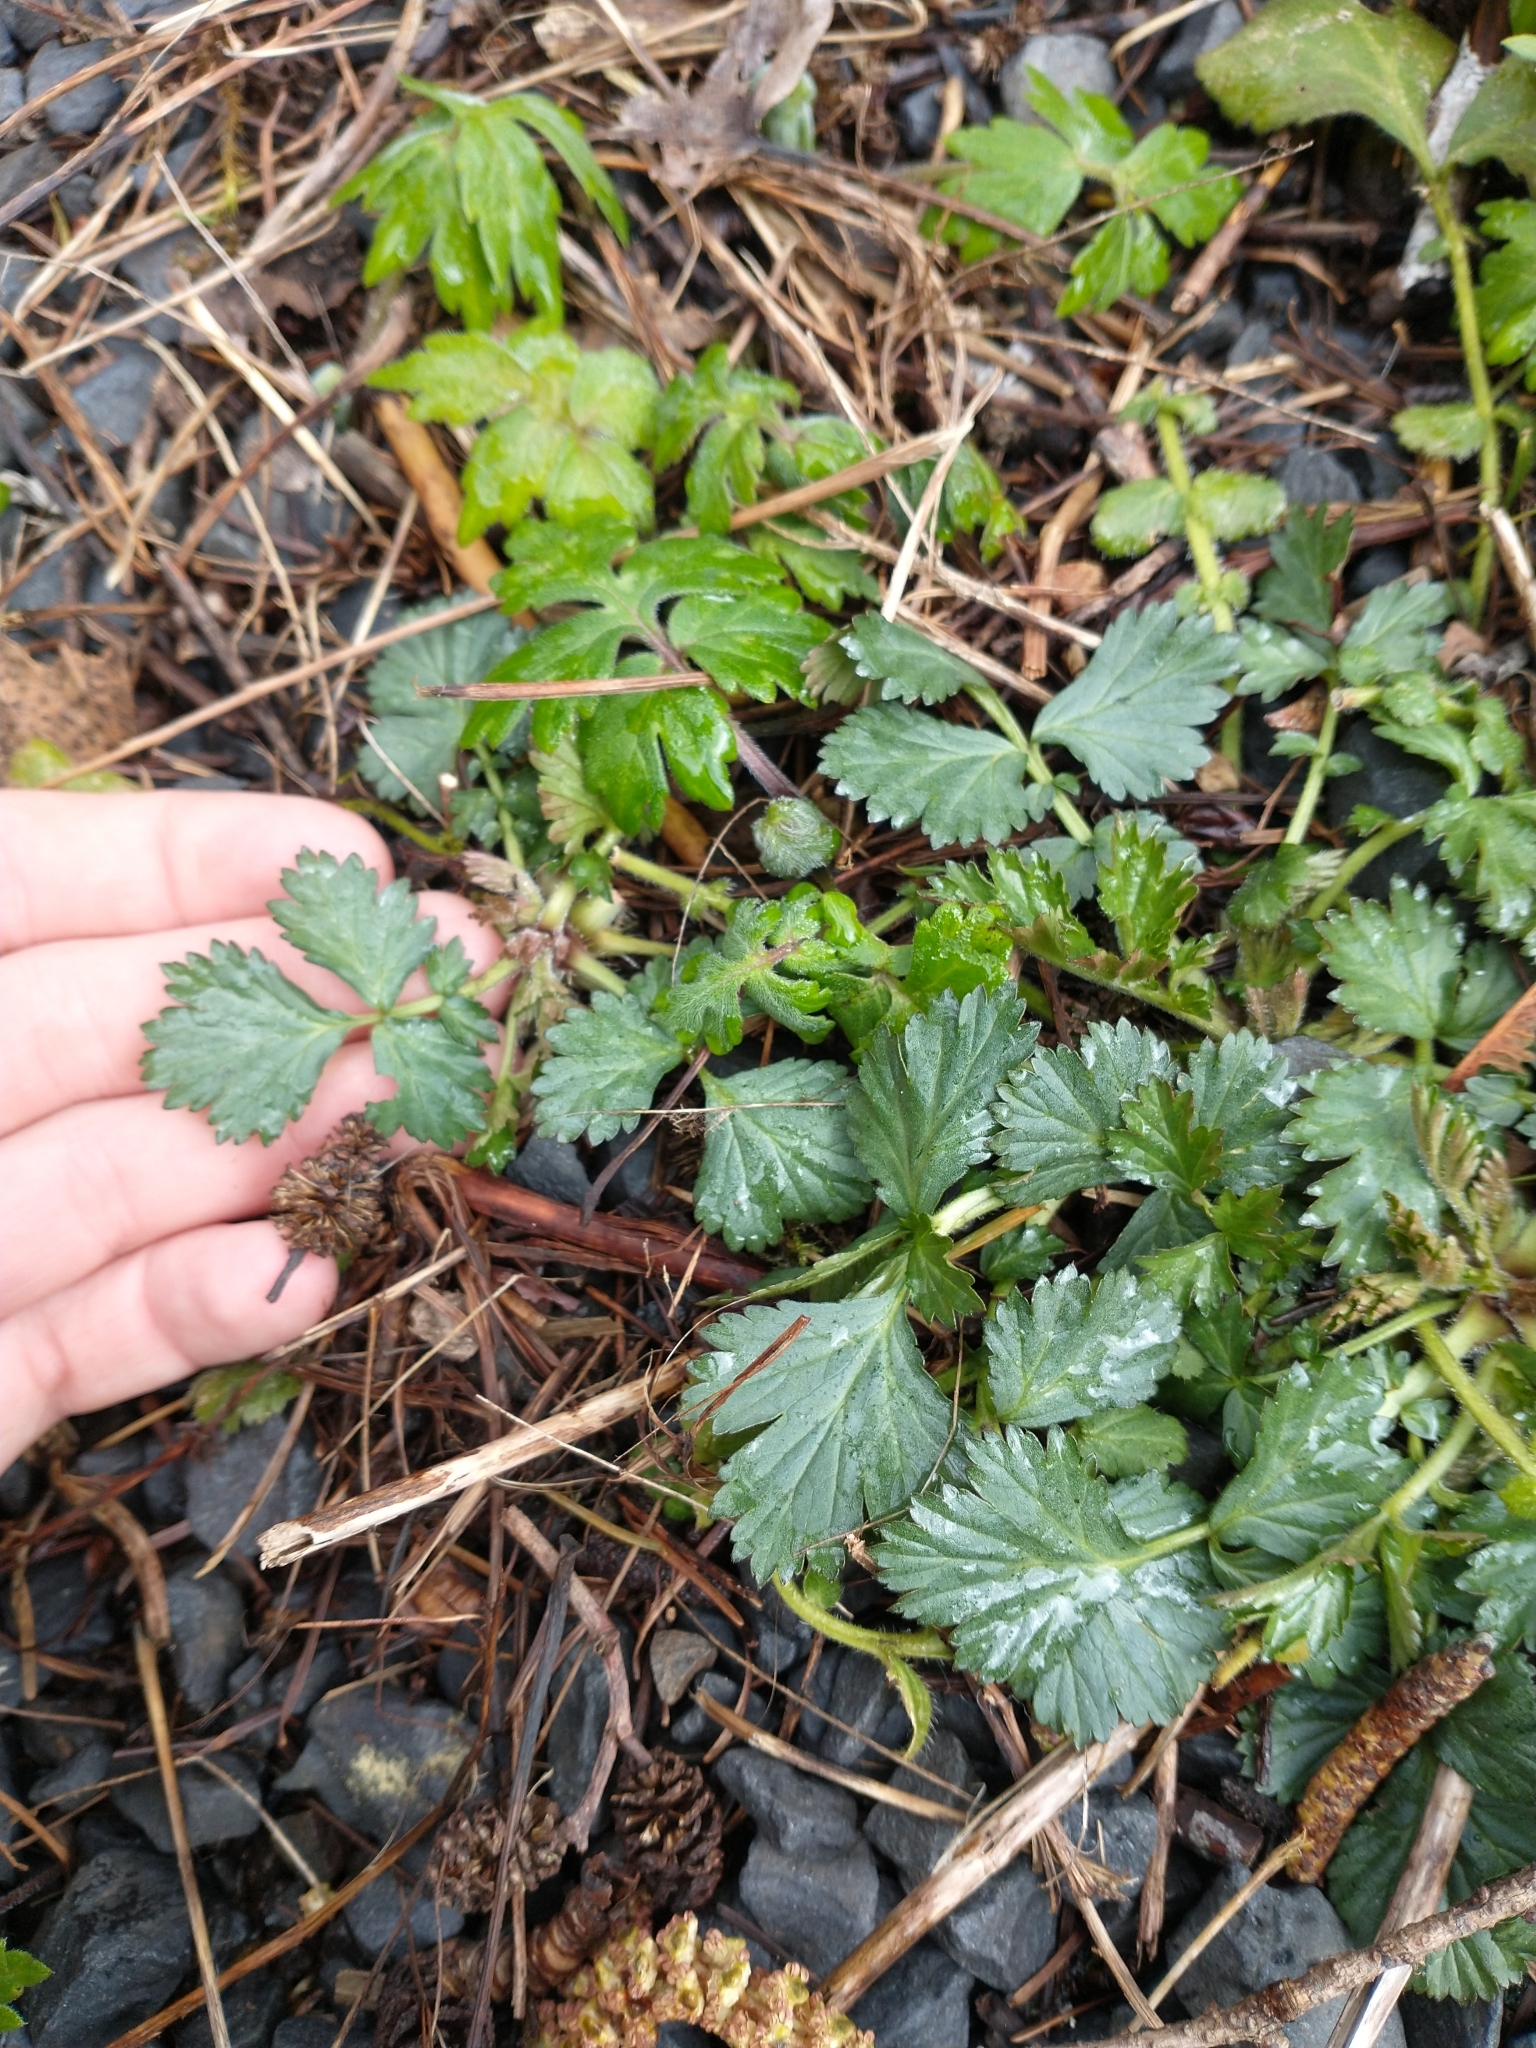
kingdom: Plantae
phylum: Tracheophyta
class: Magnoliopsida
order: Rosales
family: Rosaceae
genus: Geum
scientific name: Geum urbanum
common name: Wood avens
